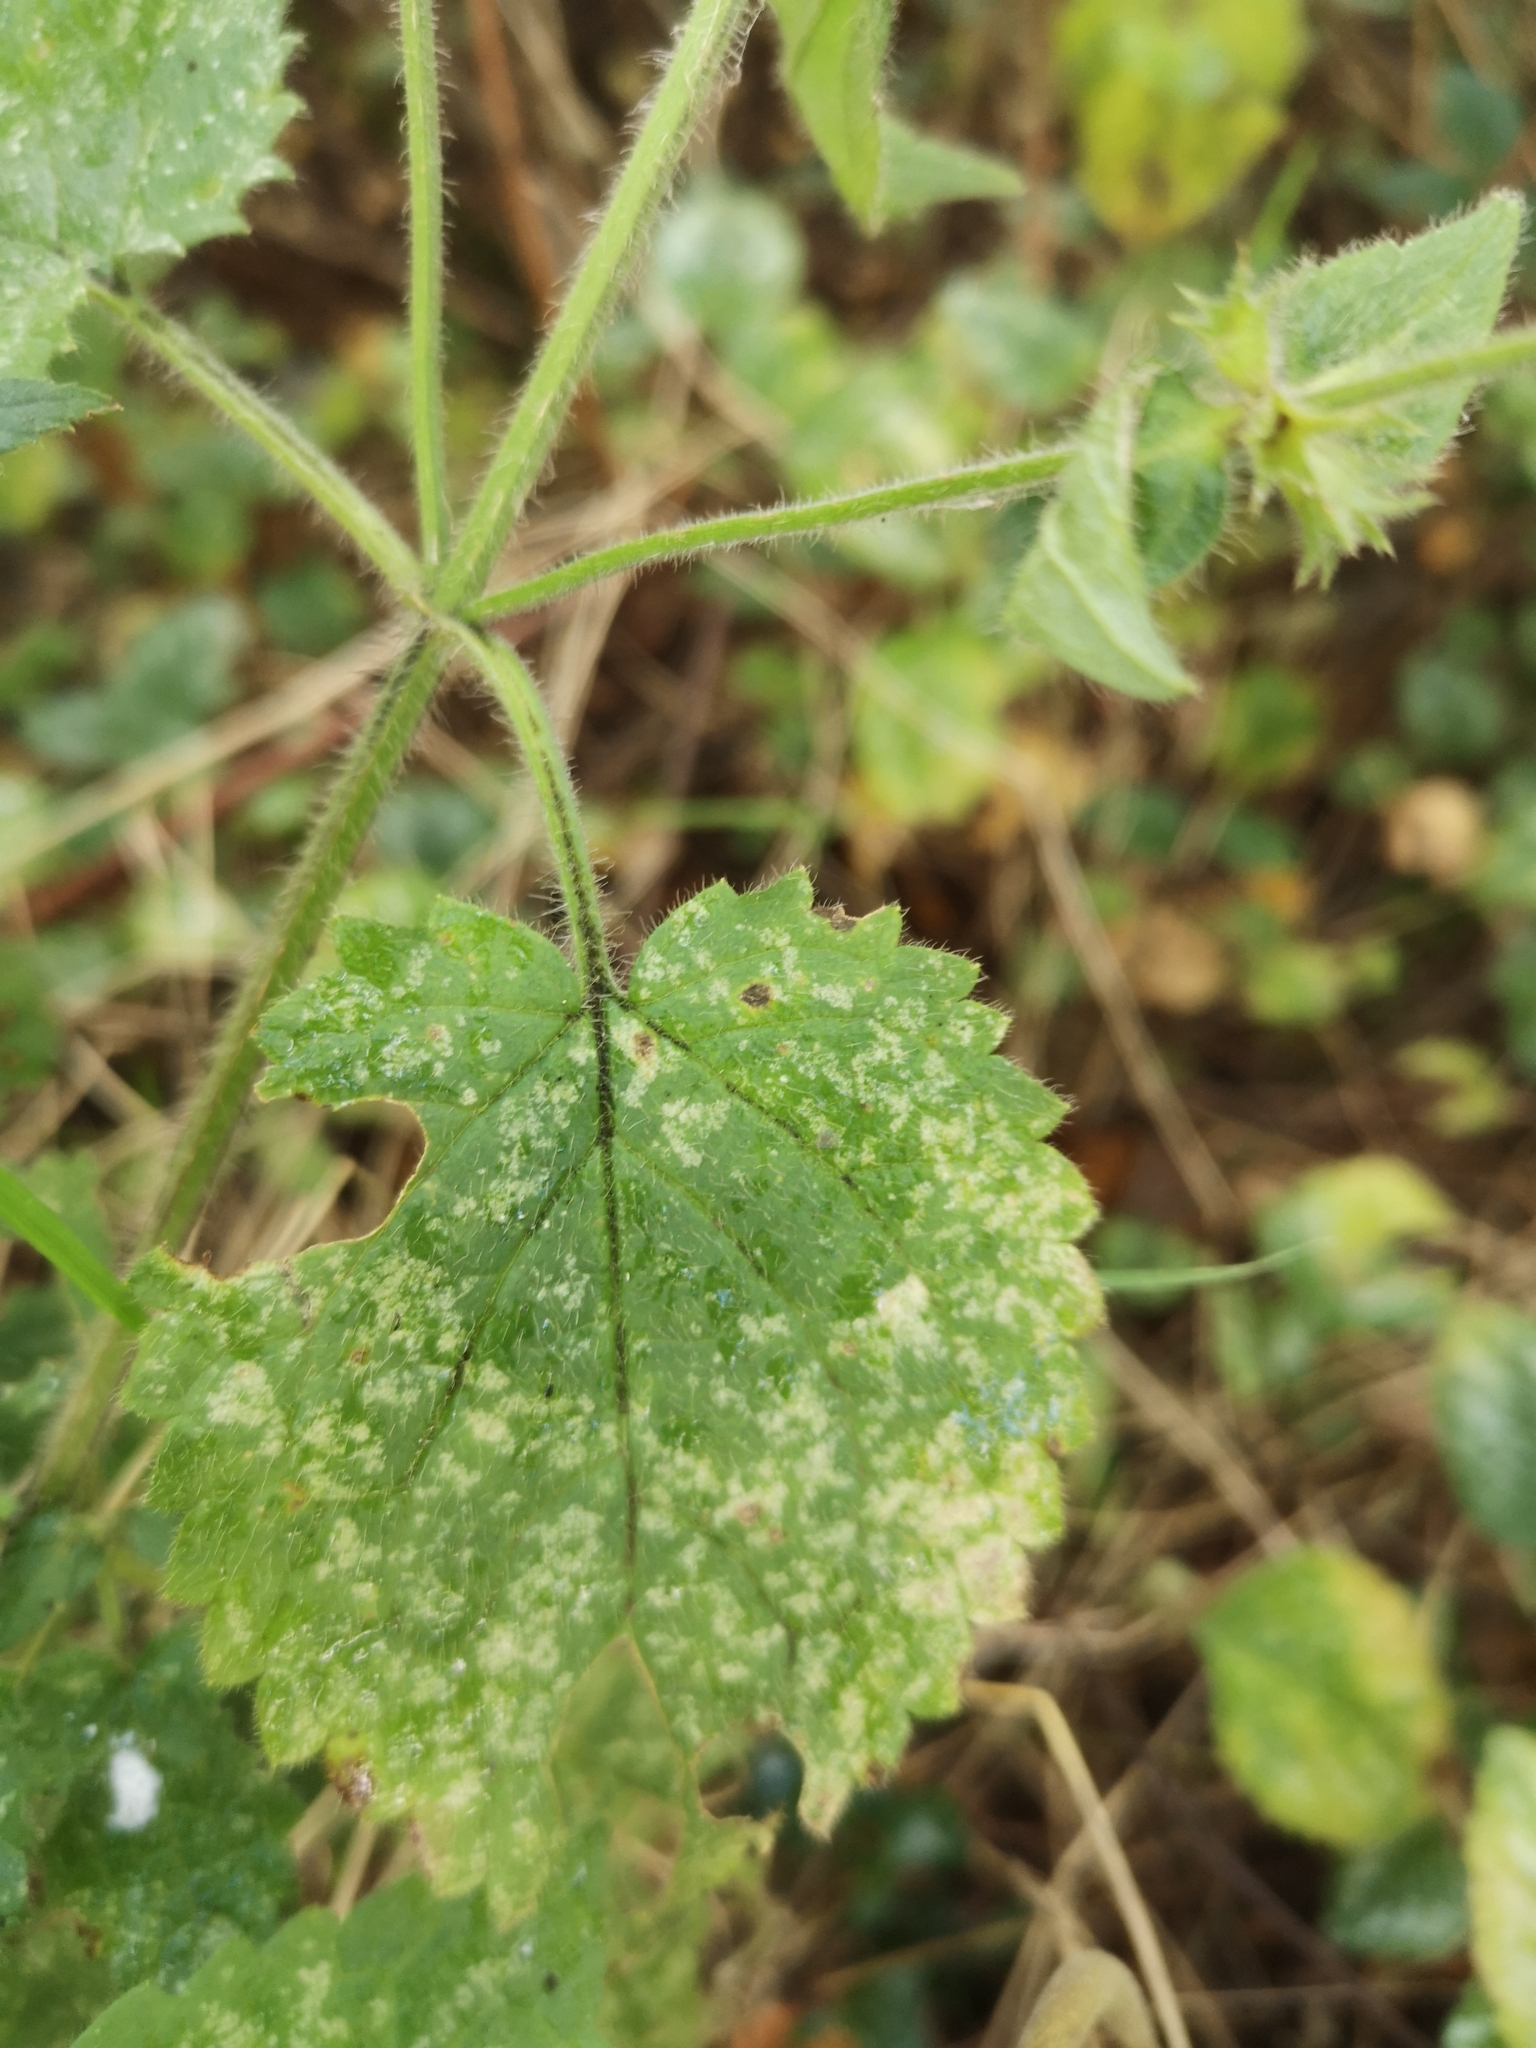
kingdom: Plantae
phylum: Tracheophyta
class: Magnoliopsida
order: Lamiales
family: Lamiaceae
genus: Stachys
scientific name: Stachys sylvatica
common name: Hedge woundwort
